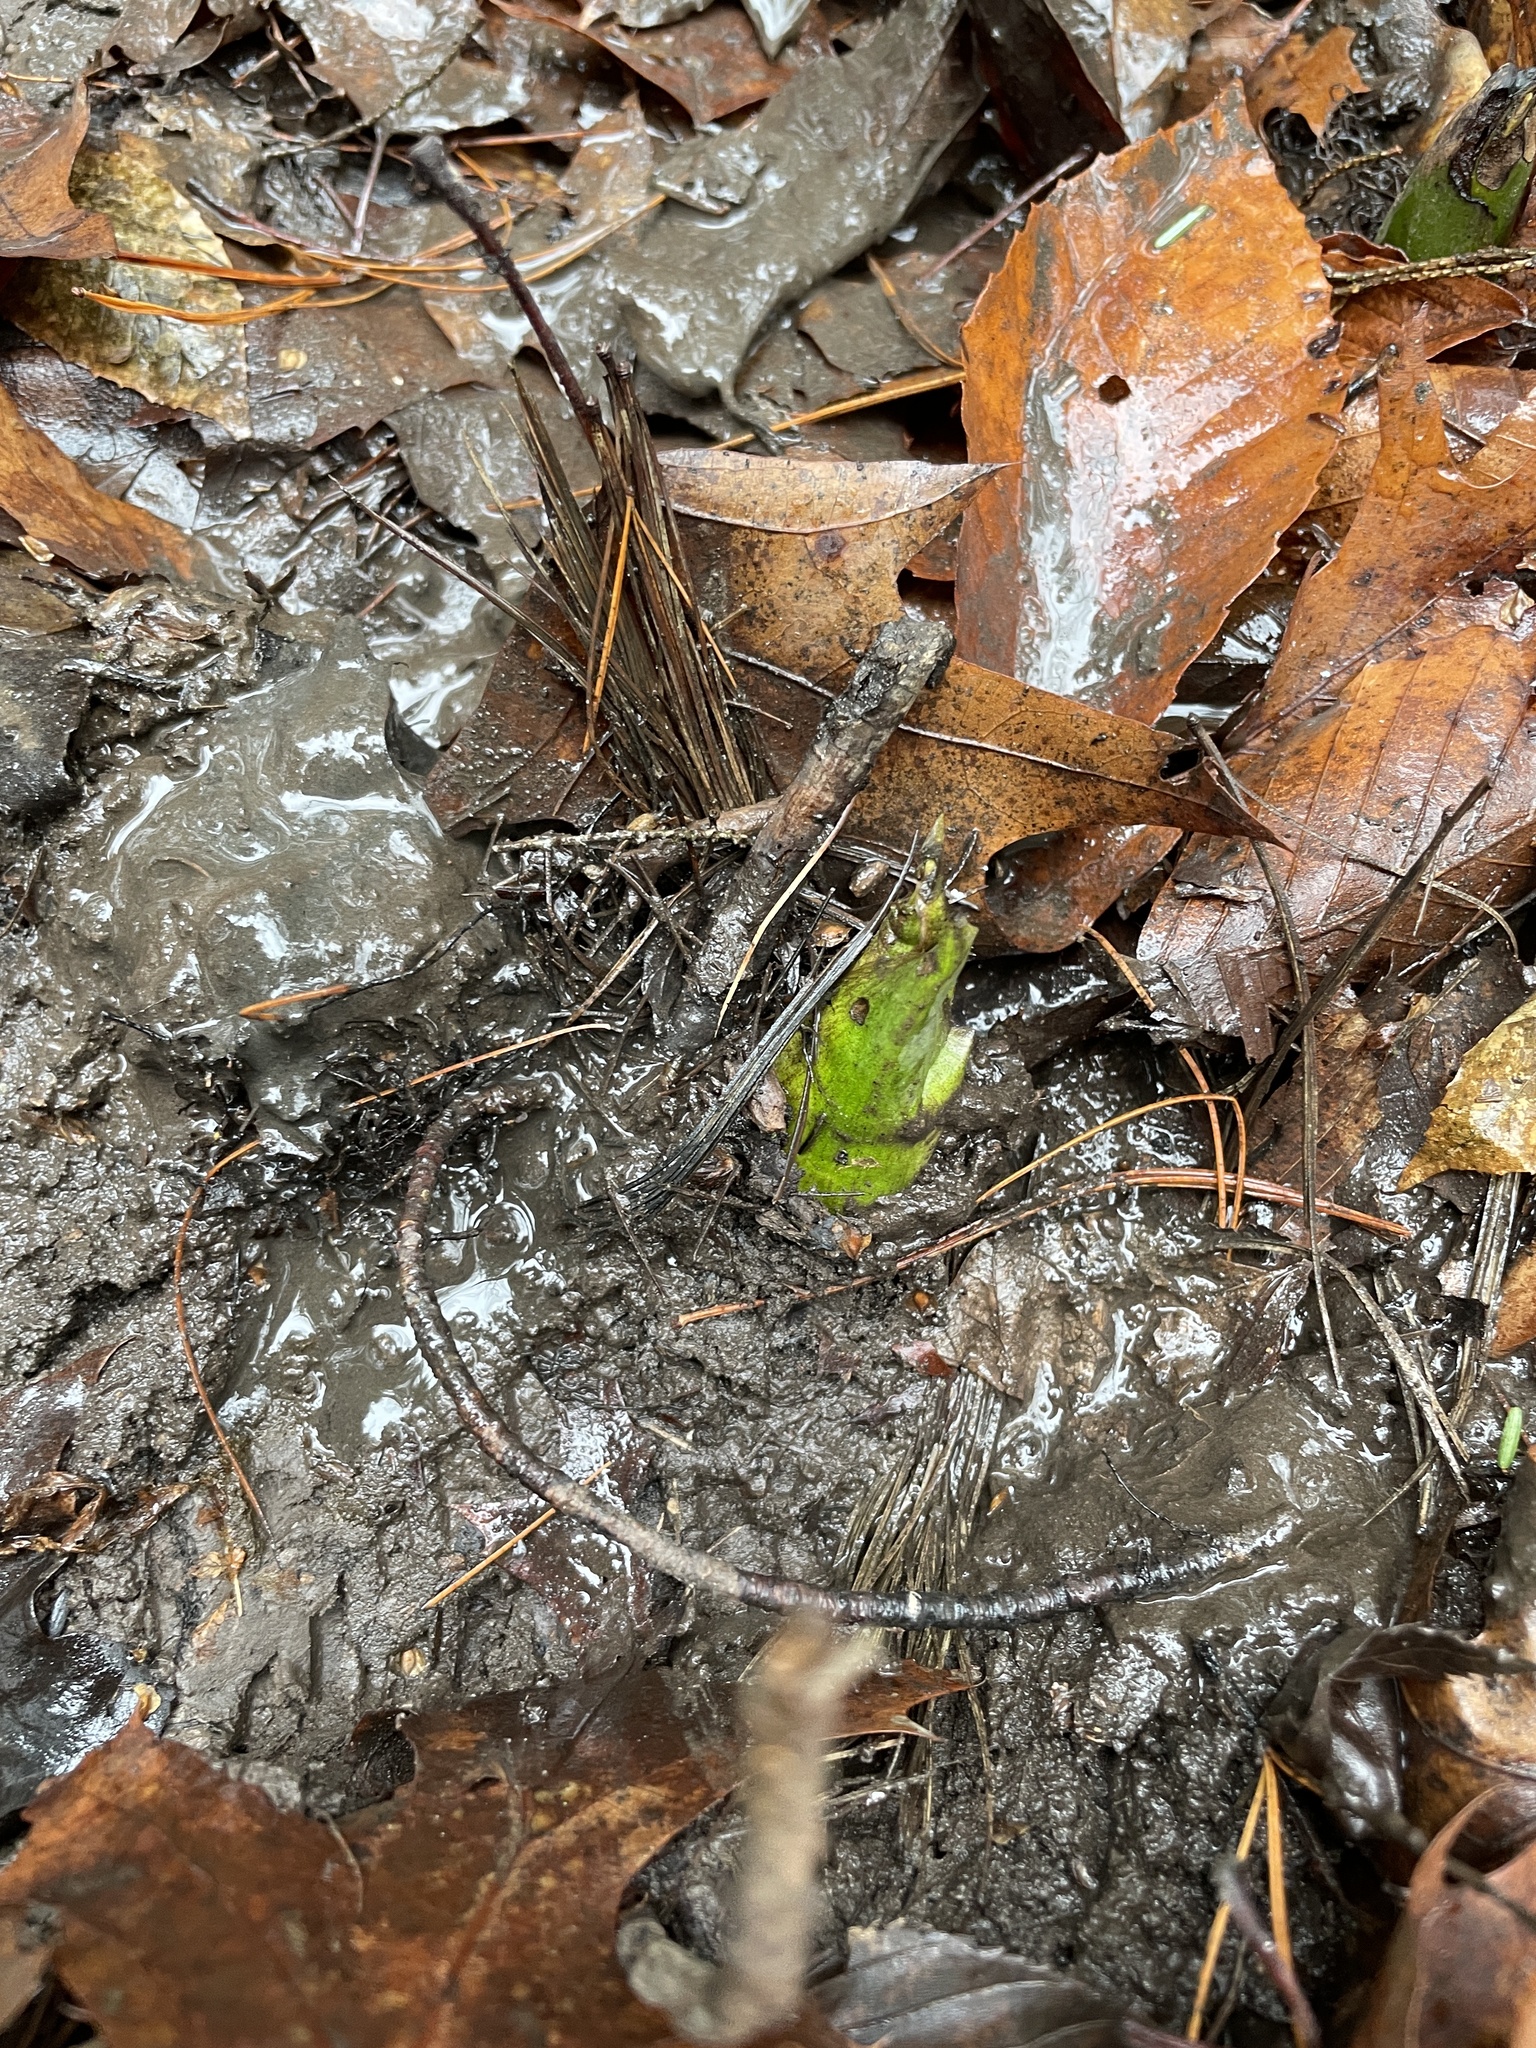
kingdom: Plantae
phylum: Tracheophyta
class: Liliopsida
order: Alismatales
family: Araceae
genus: Symplocarpus
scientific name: Symplocarpus foetidus
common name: Eastern skunk cabbage
